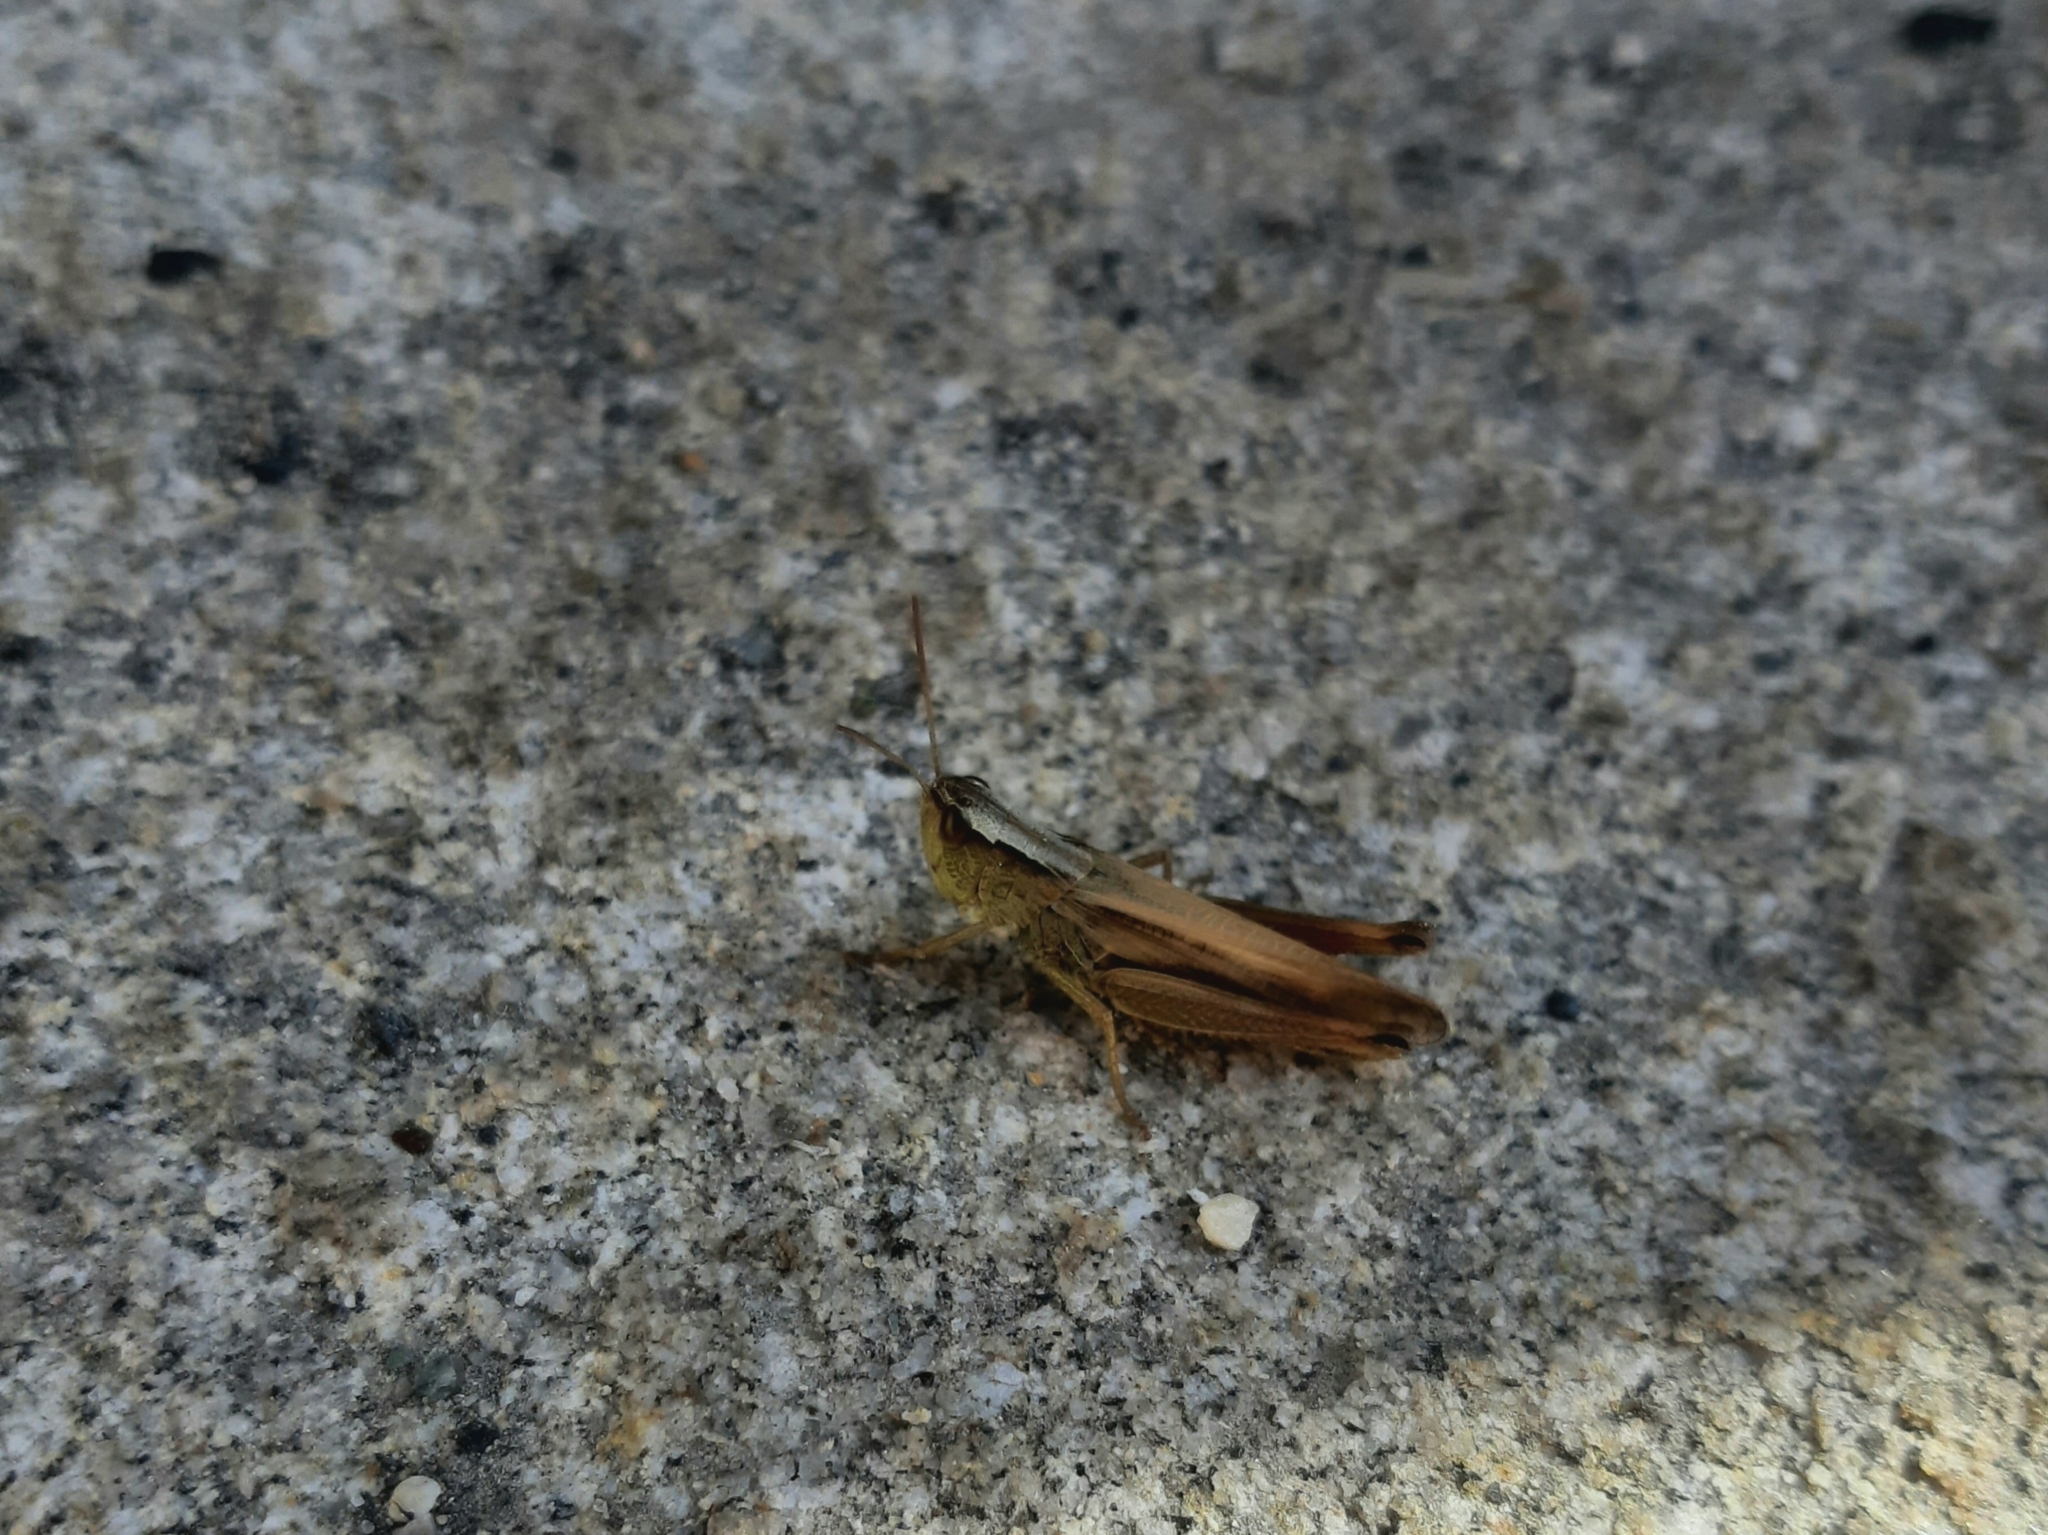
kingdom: Animalia
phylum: Arthropoda
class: Insecta
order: Orthoptera
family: Acrididae
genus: Pseudochorthippus
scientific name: Pseudochorthippus parallelus
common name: Meadow grasshopper
